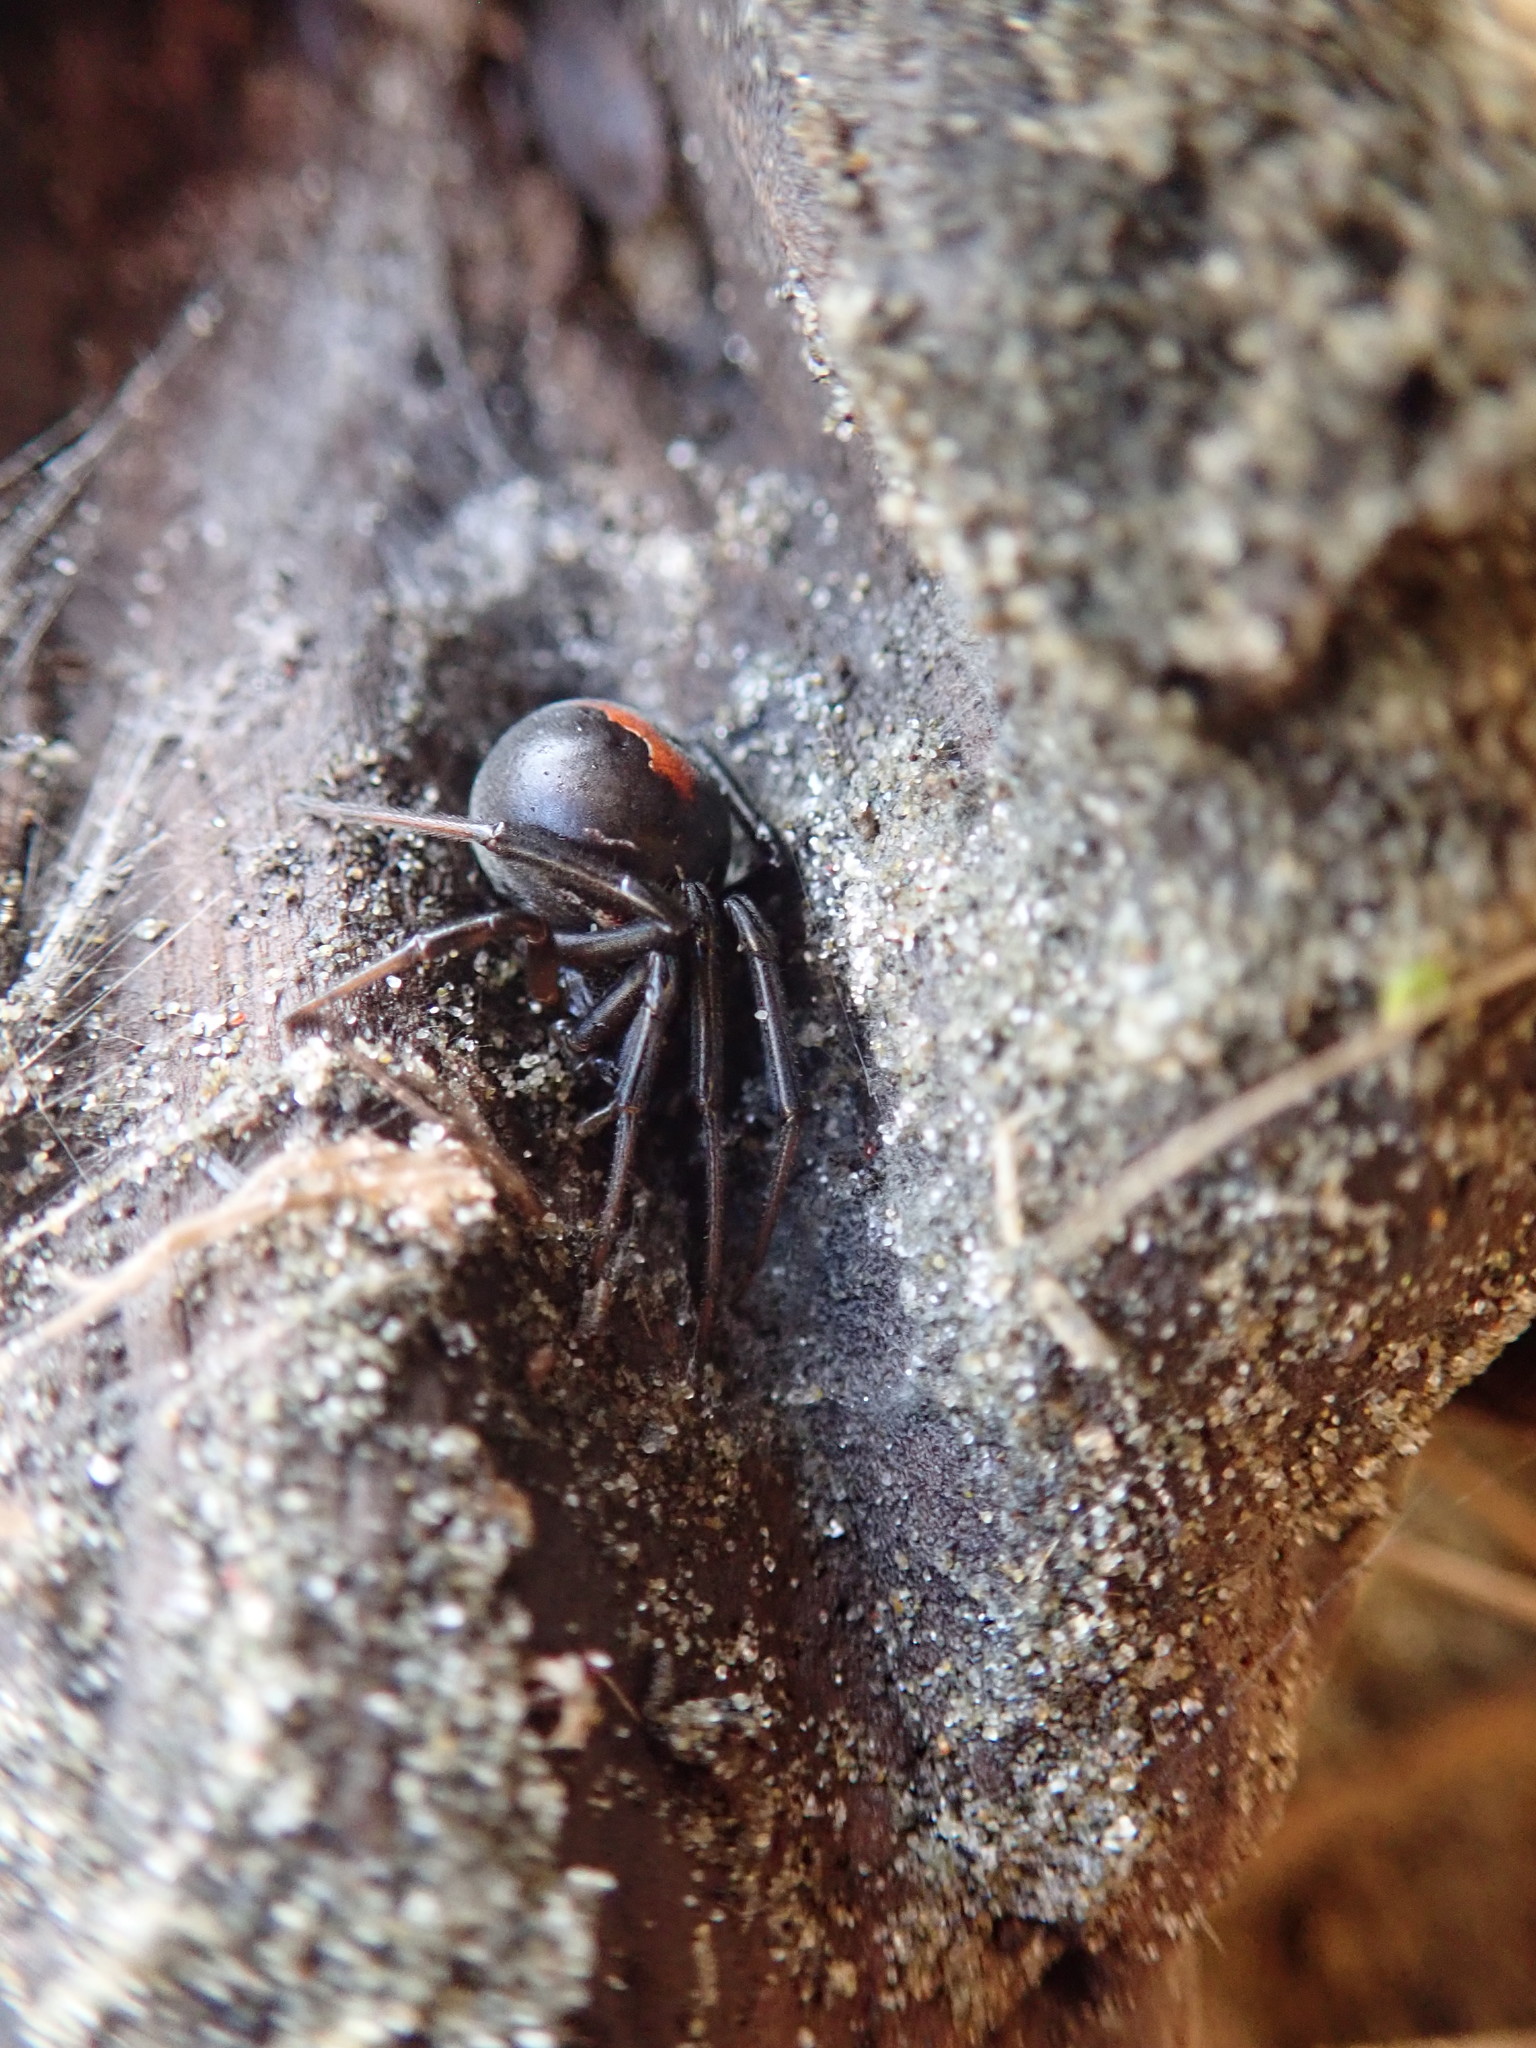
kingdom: Animalia
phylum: Arthropoda
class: Arachnida
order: Araneae
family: Theridiidae
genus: Latrodectus
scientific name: Latrodectus katipo
